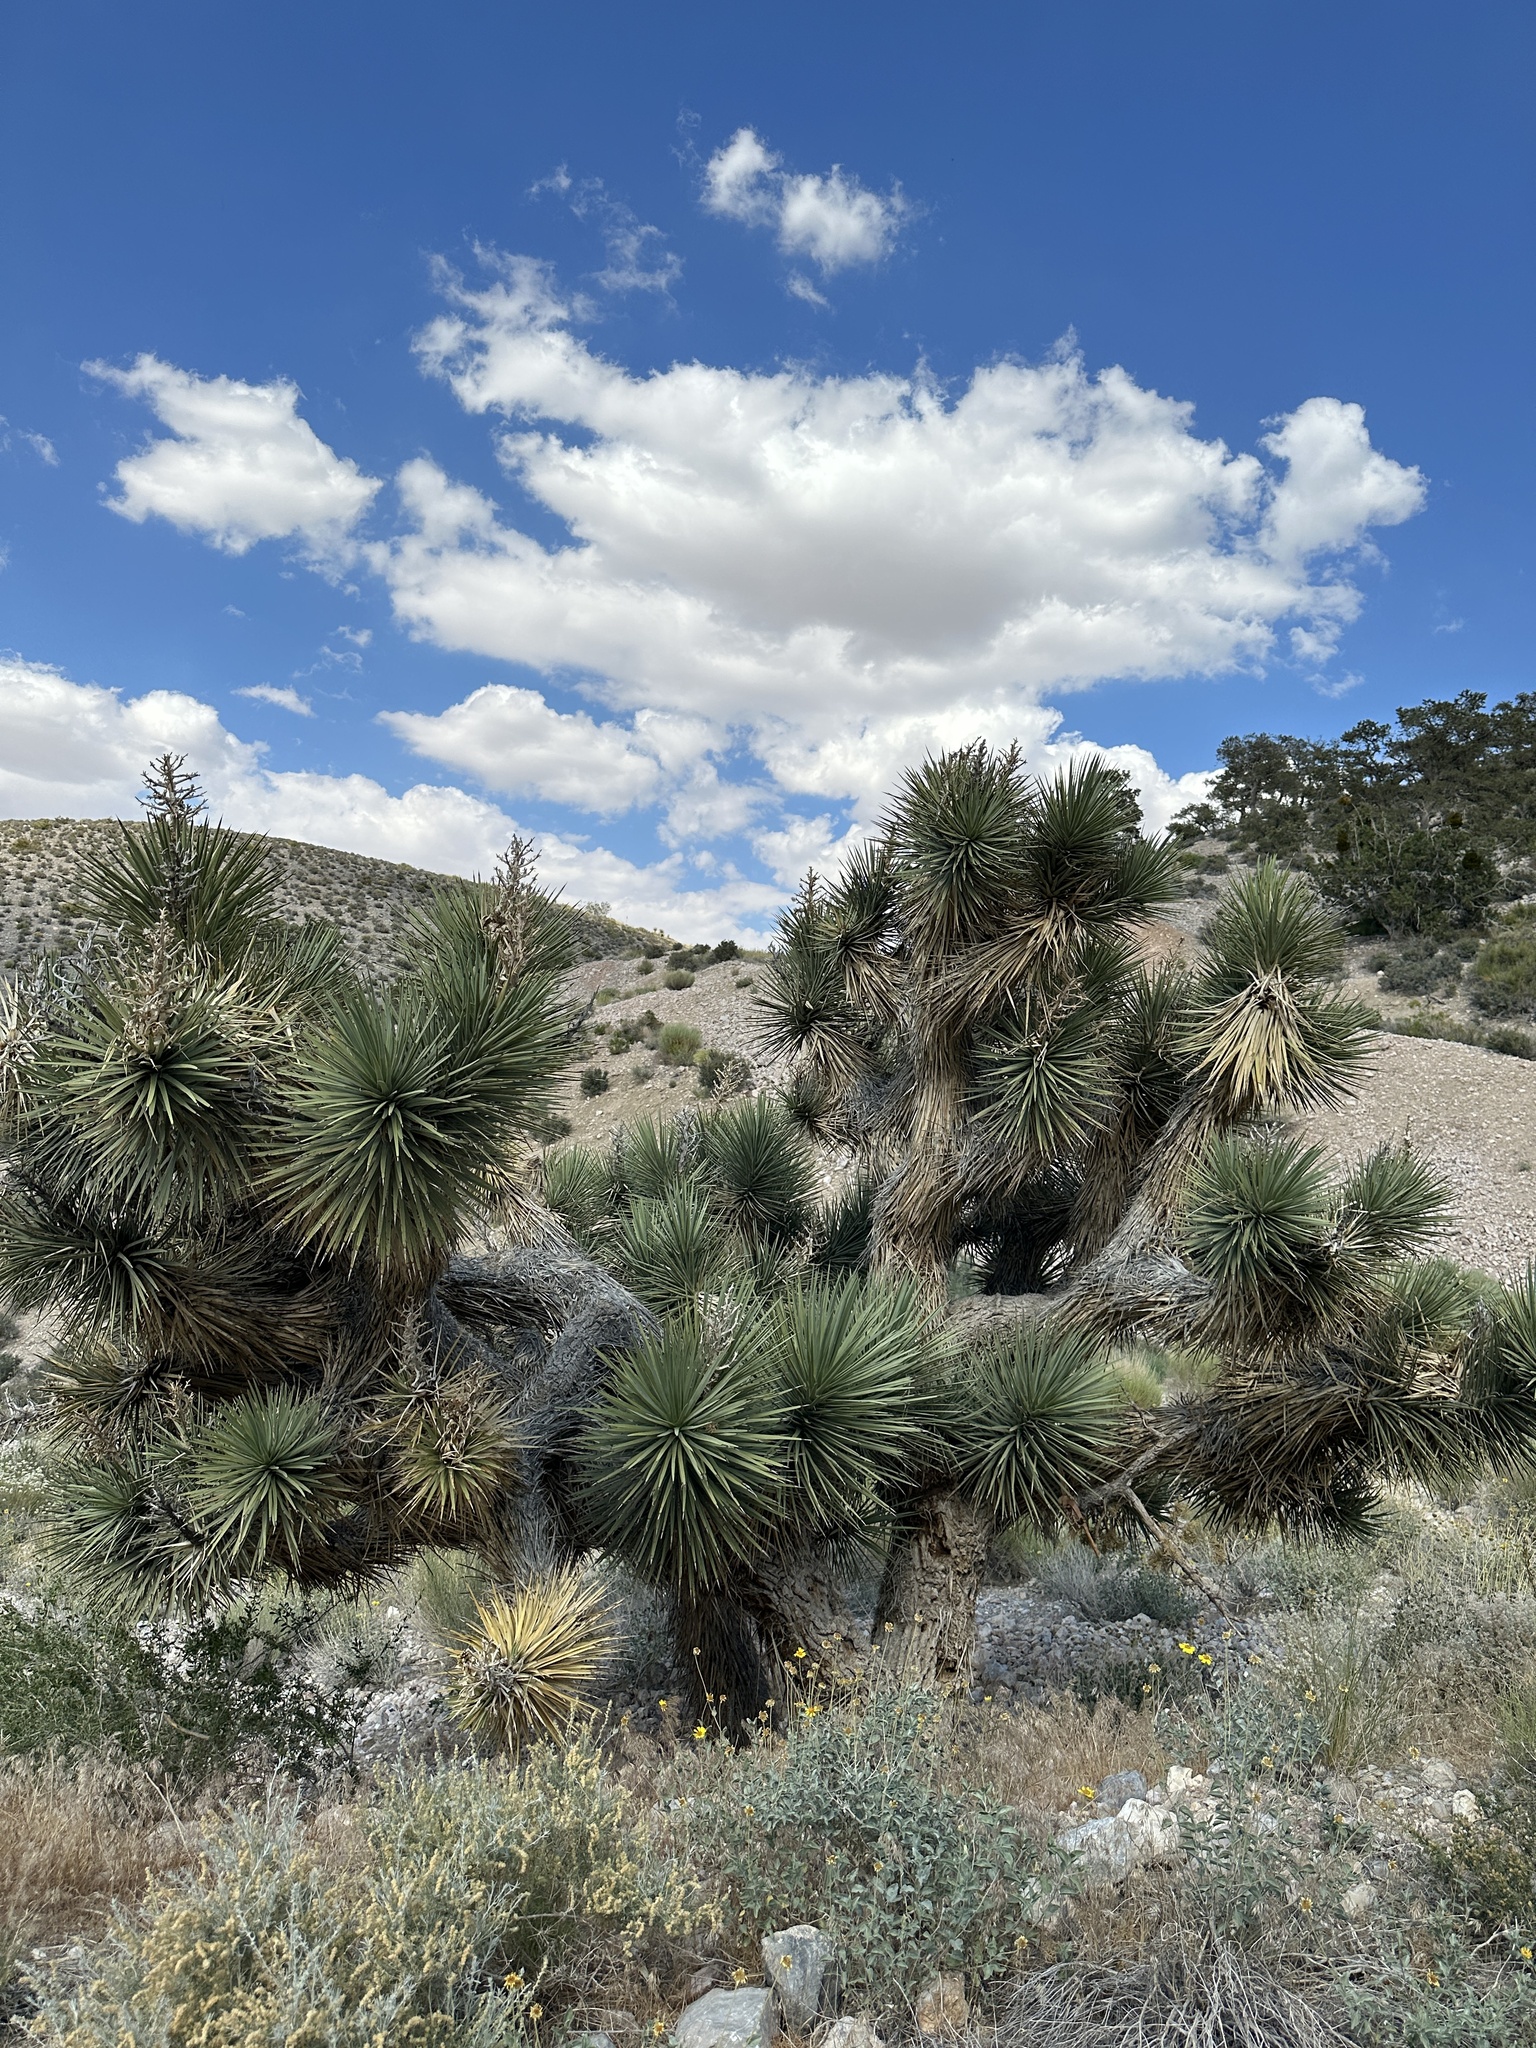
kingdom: Plantae
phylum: Tracheophyta
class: Liliopsida
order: Asparagales
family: Asparagaceae
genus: Yucca
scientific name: Yucca brevifolia
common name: Joshua tree
